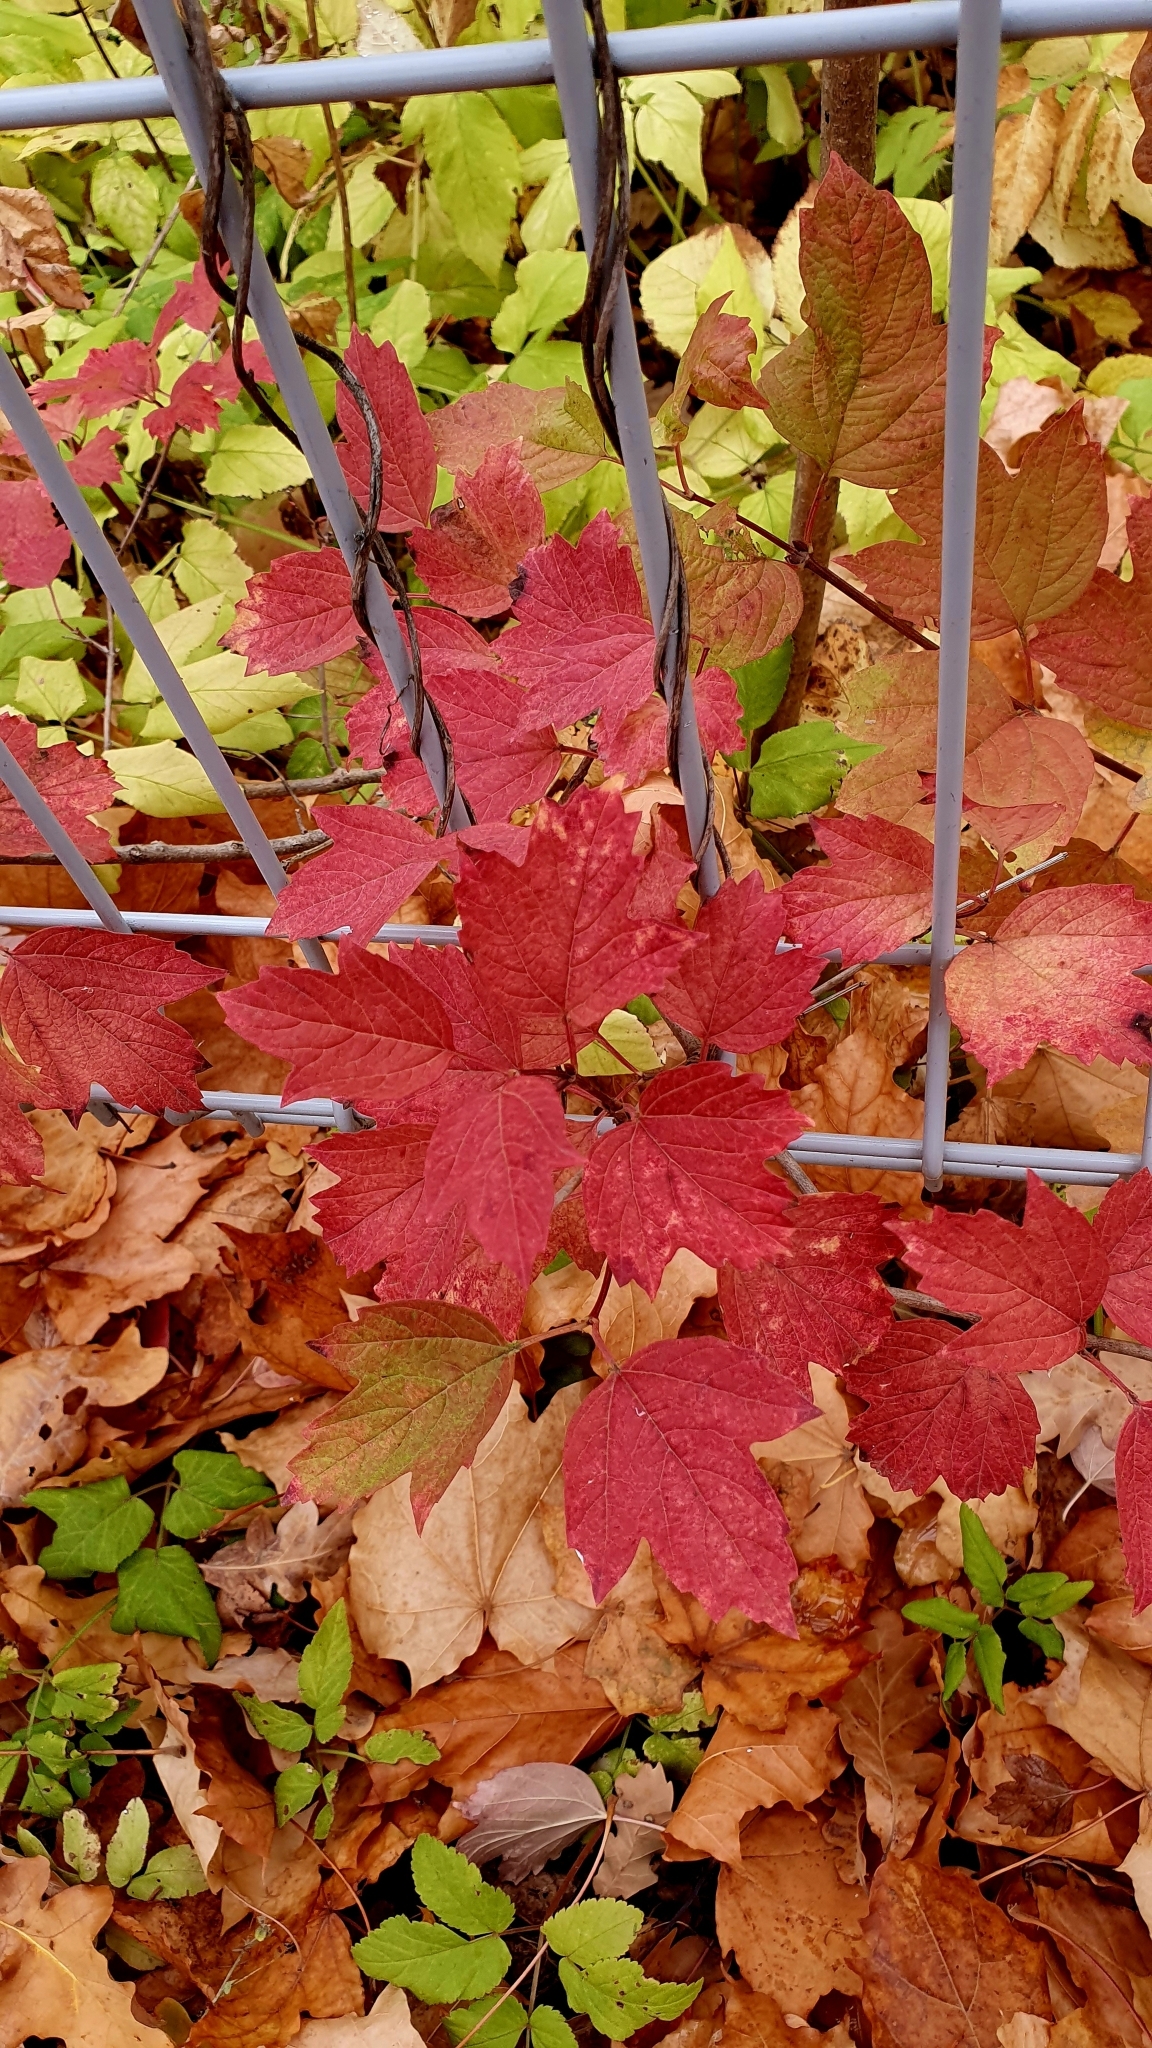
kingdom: Plantae
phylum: Tracheophyta
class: Magnoliopsida
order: Dipsacales
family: Viburnaceae
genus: Viburnum
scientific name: Viburnum opulus
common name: Guelder-rose
